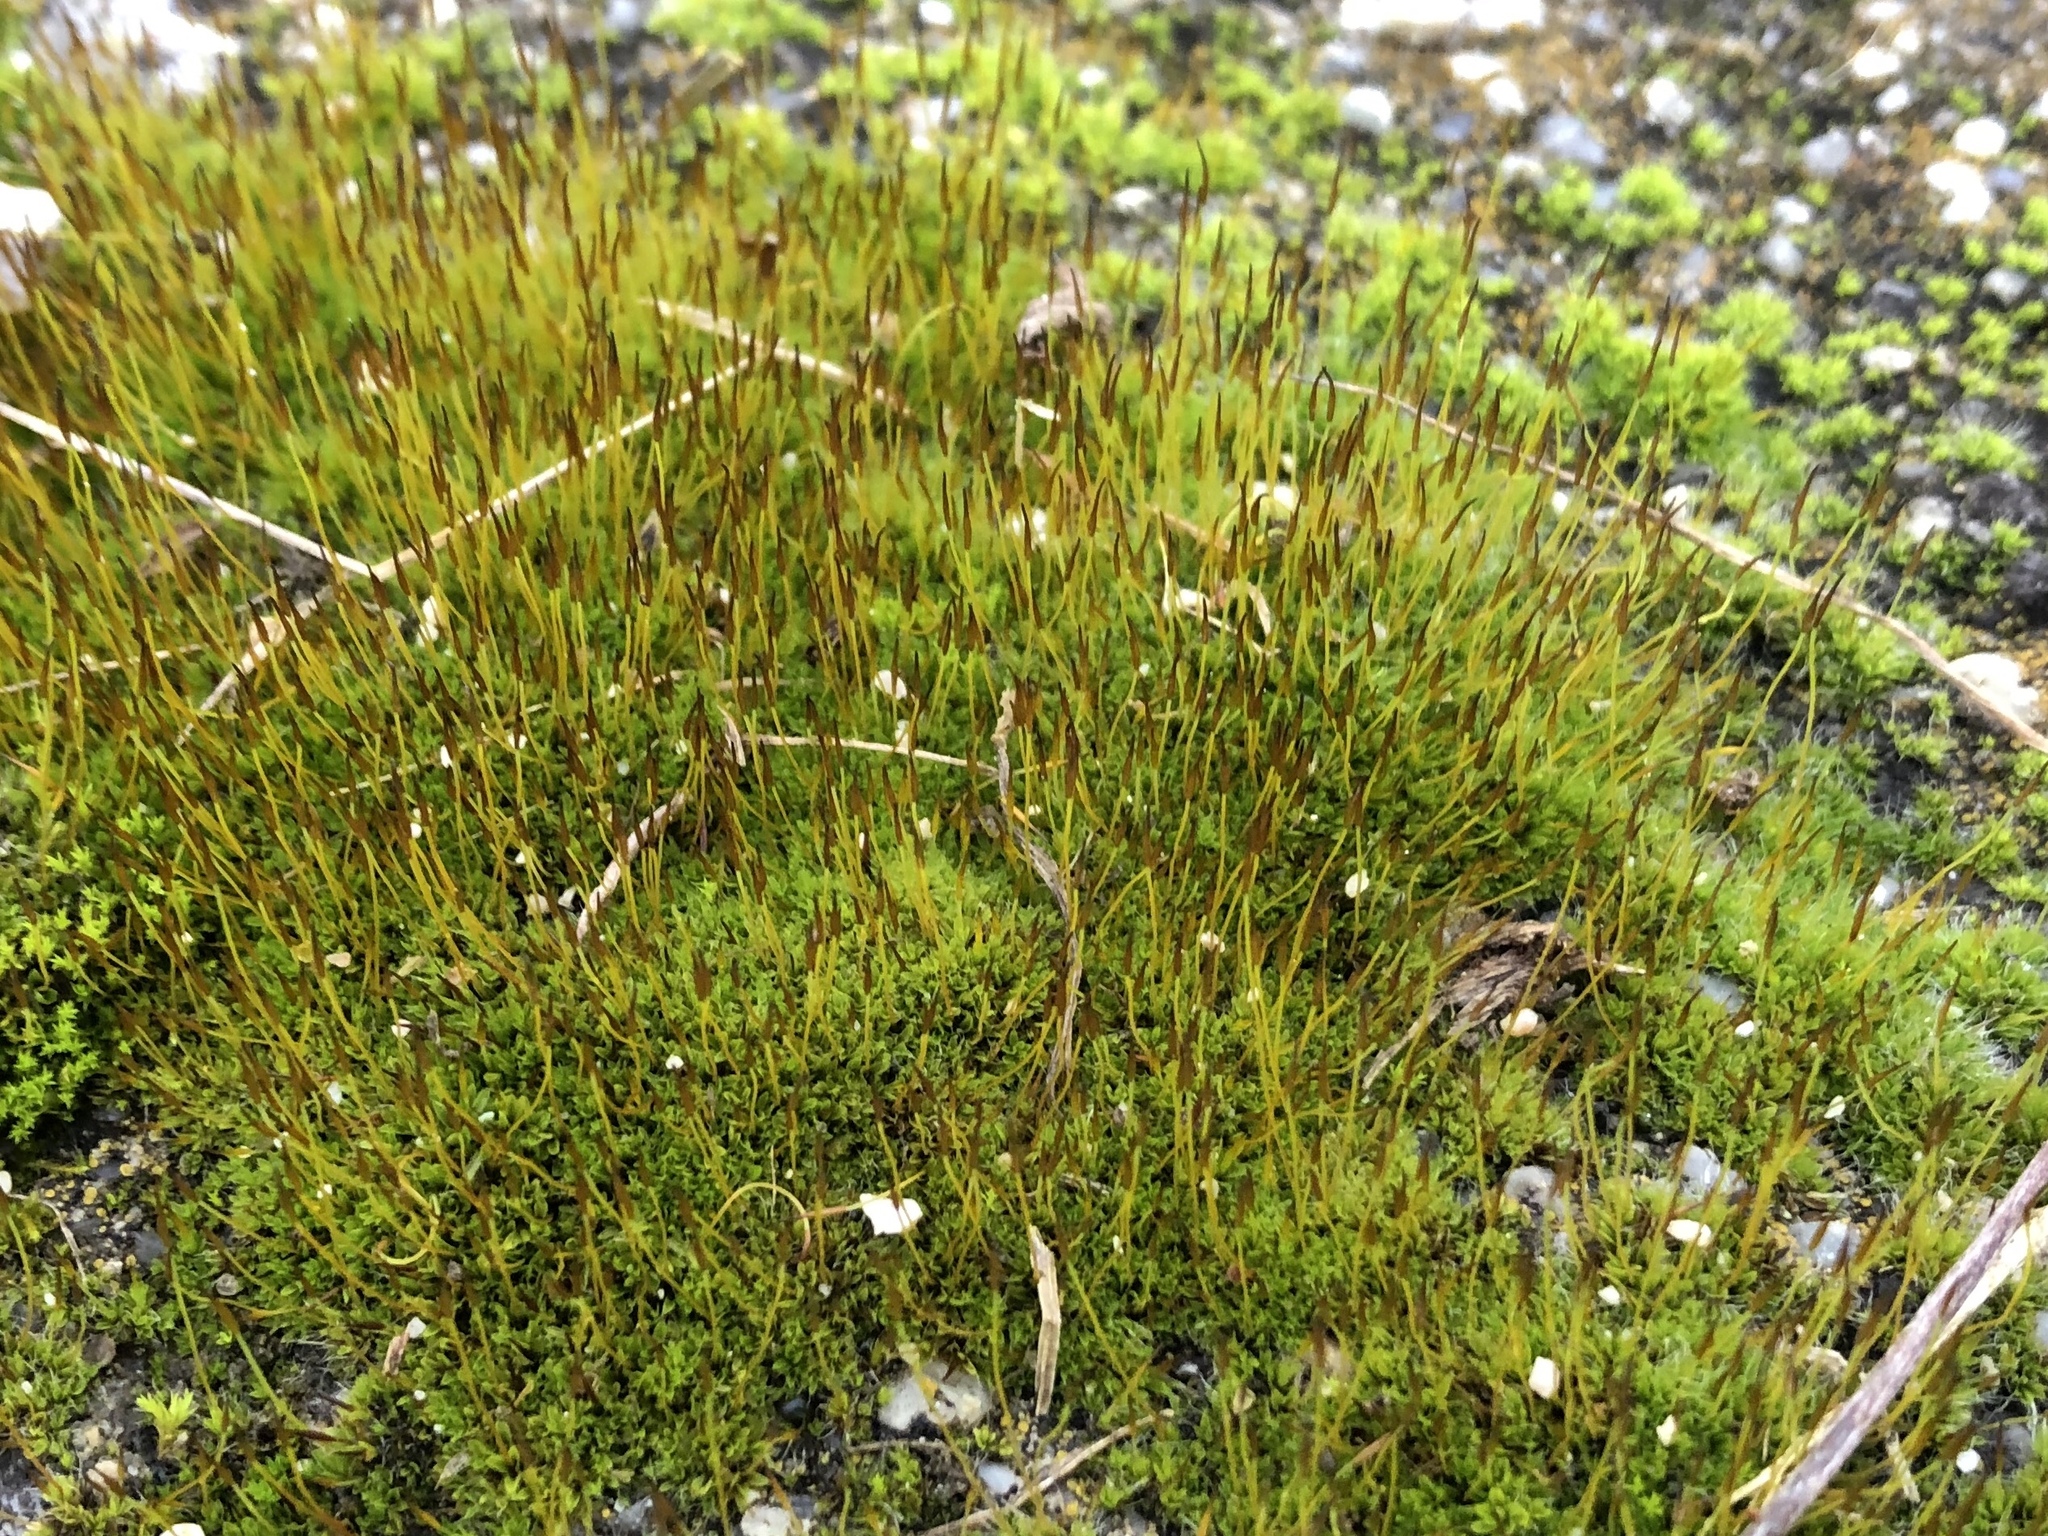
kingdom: Plantae
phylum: Bryophyta
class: Bryopsida
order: Pottiales
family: Pottiaceae
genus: Tortula
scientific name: Tortula muralis
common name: Wall screw-moss
